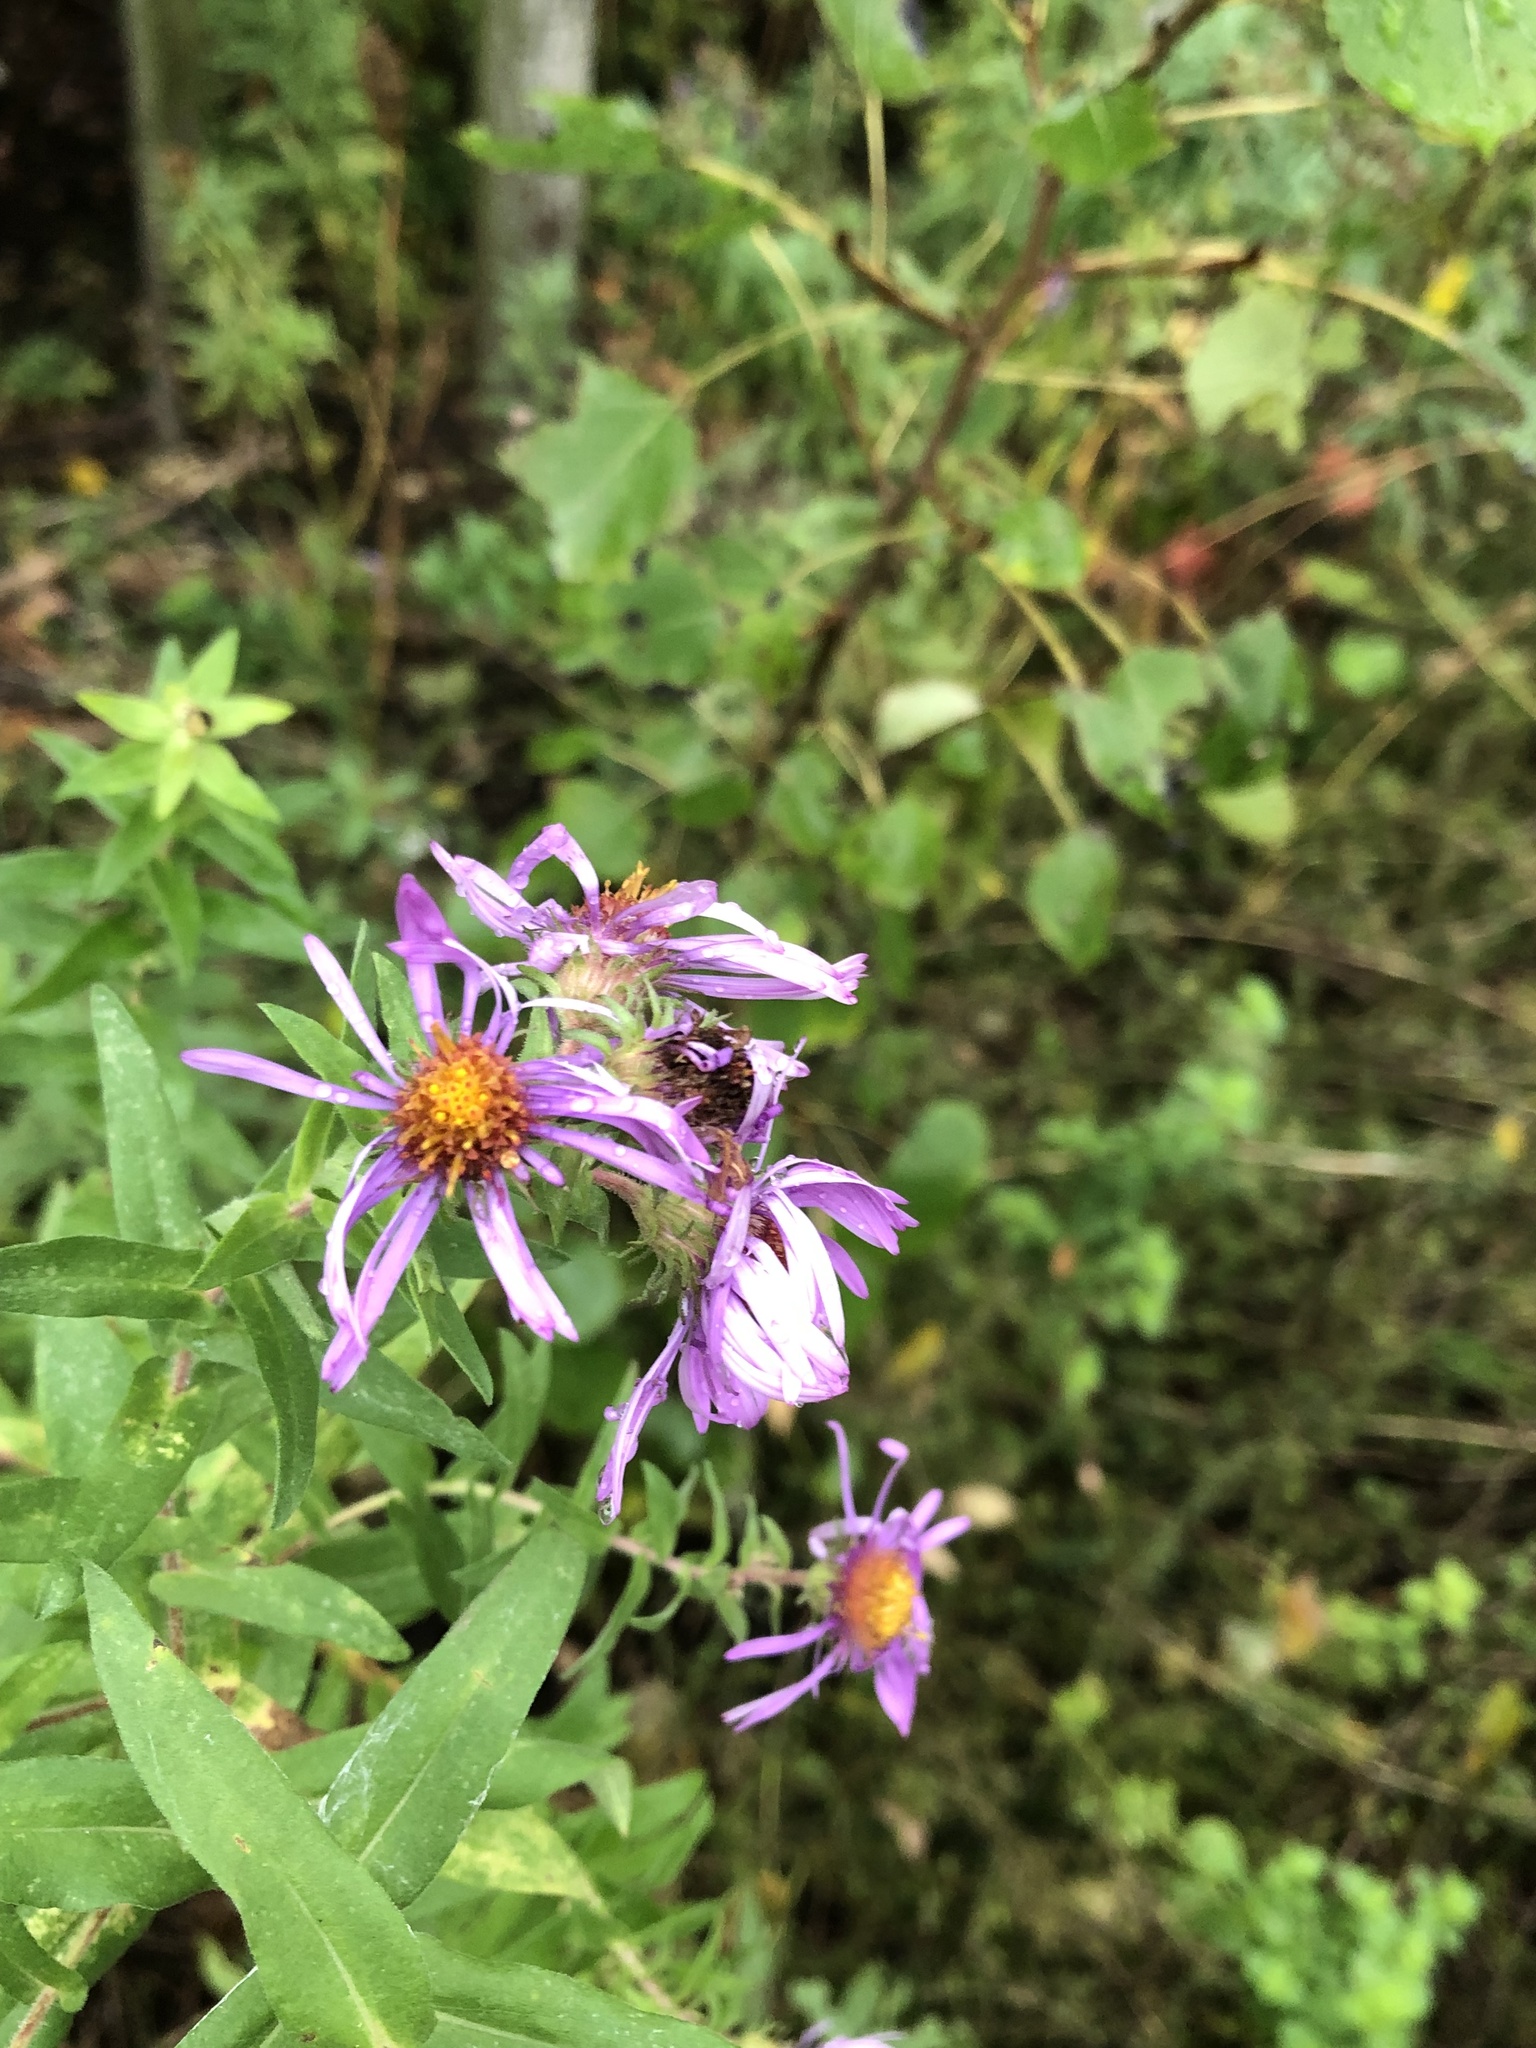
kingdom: Plantae
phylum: Tracheophyta
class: Magnoliopsida
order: Asterales
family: Asteraceae
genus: Symphyotrichum
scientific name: Symphyotrichum novae-angliae
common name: Michaelmas daisy
